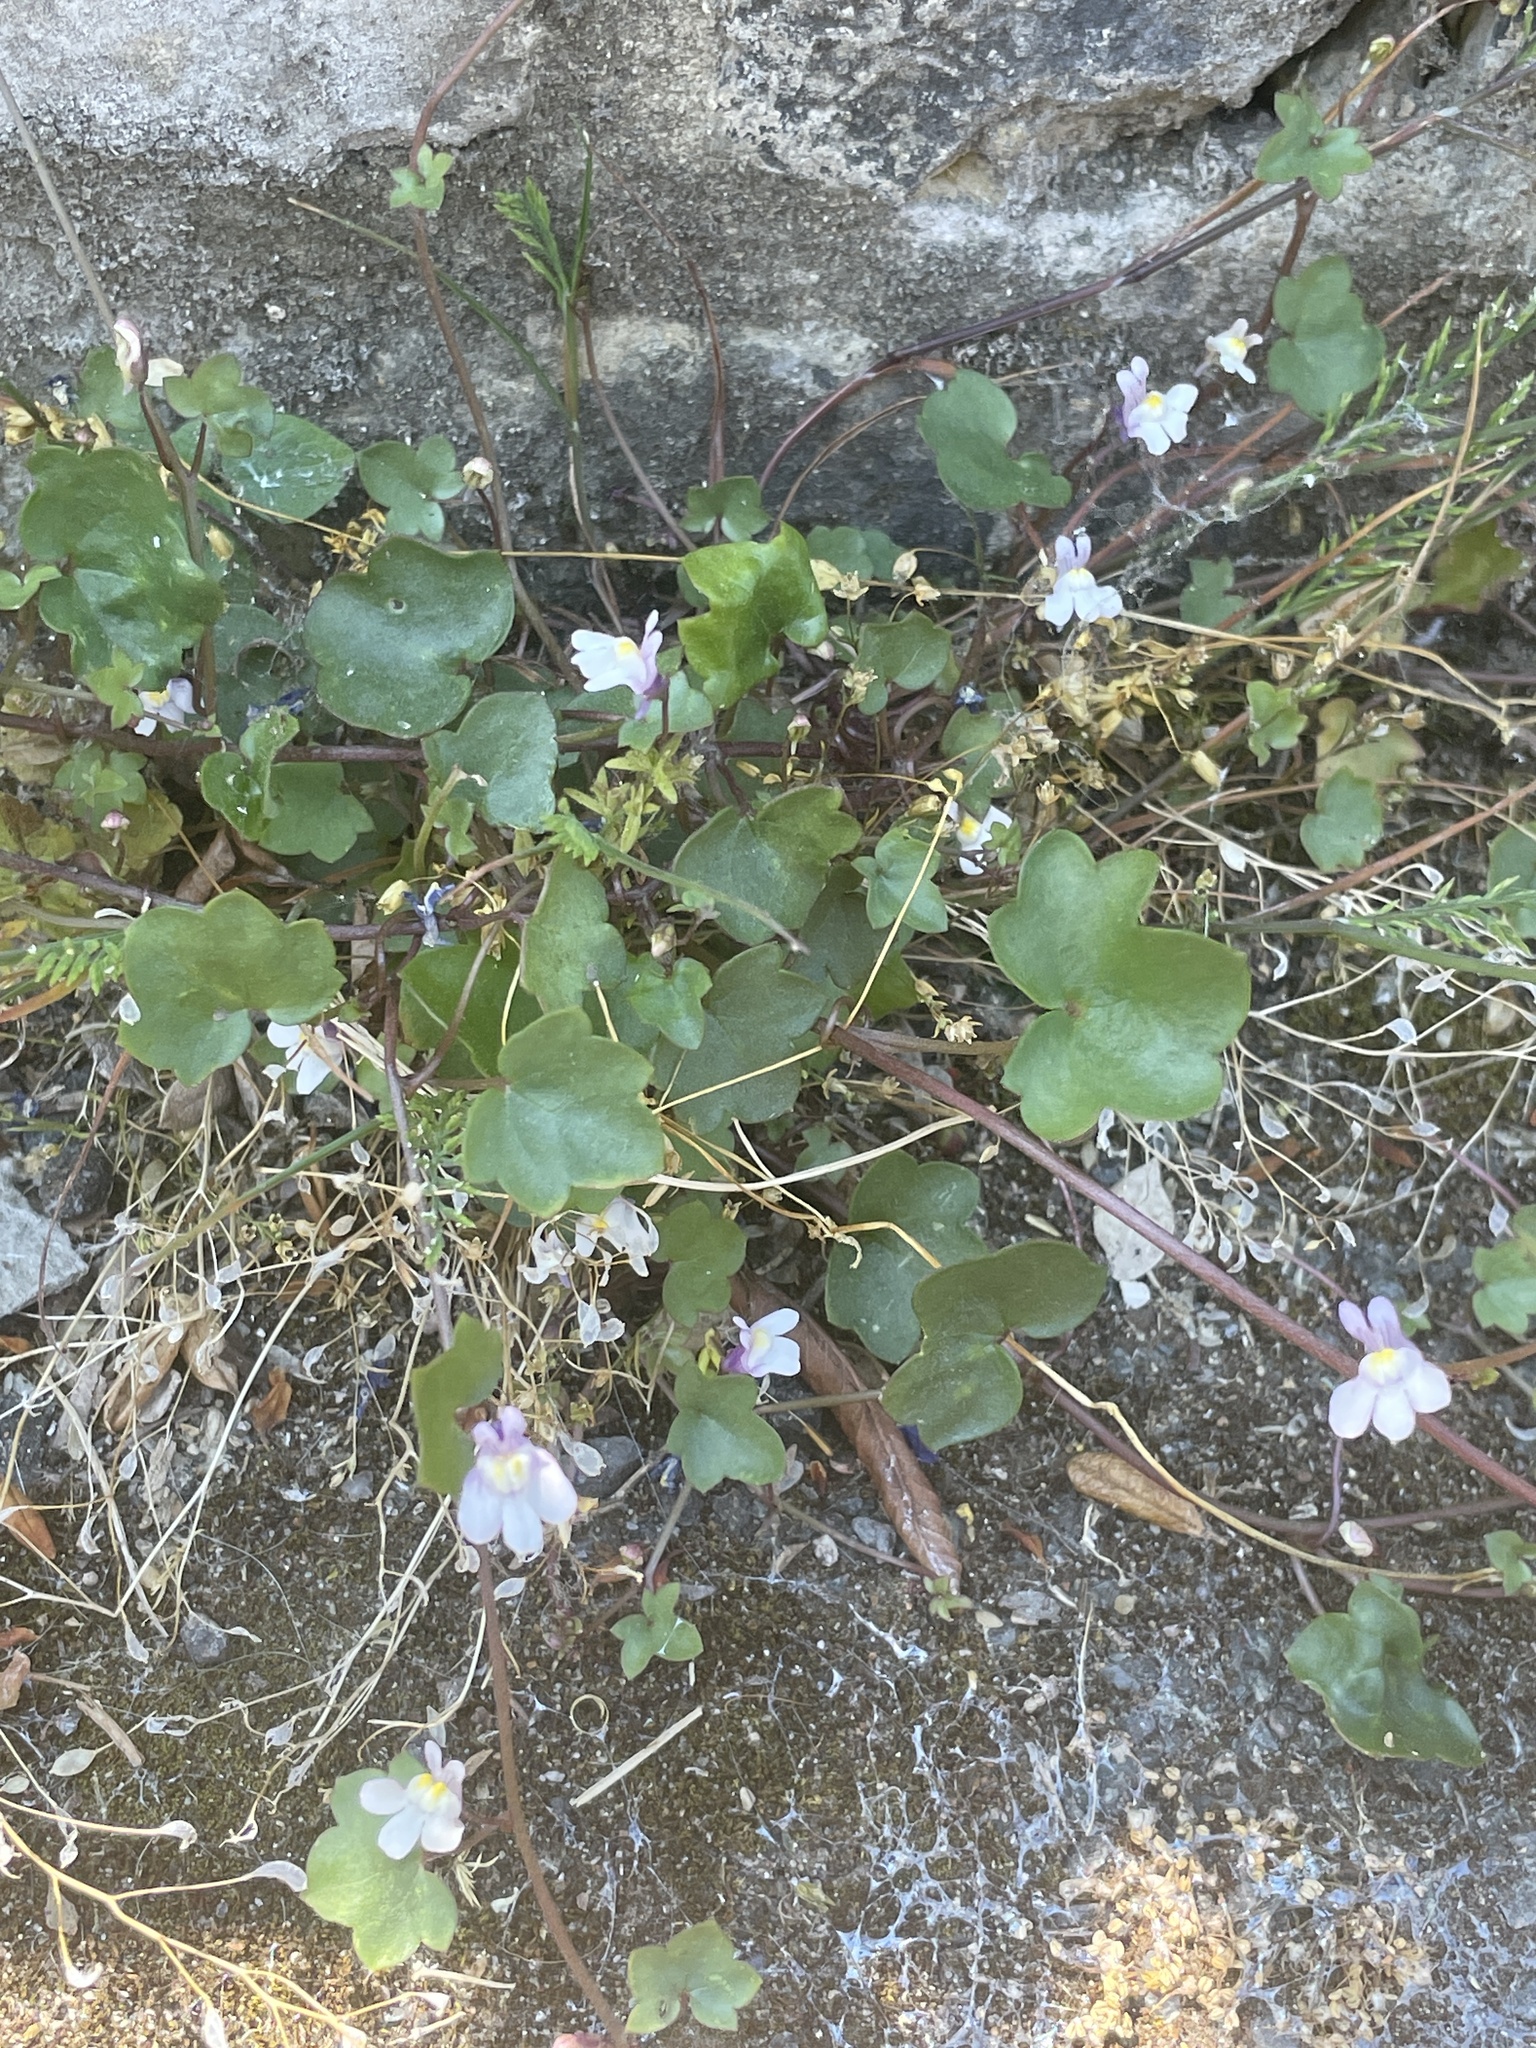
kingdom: Plantae
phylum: Tracheophyta
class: Magnoliopsida
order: Lamiales
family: Plantaginaceae
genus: Cymbalaria
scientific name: Cymbalaria muralis
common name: Ivy-leaved toadflax
